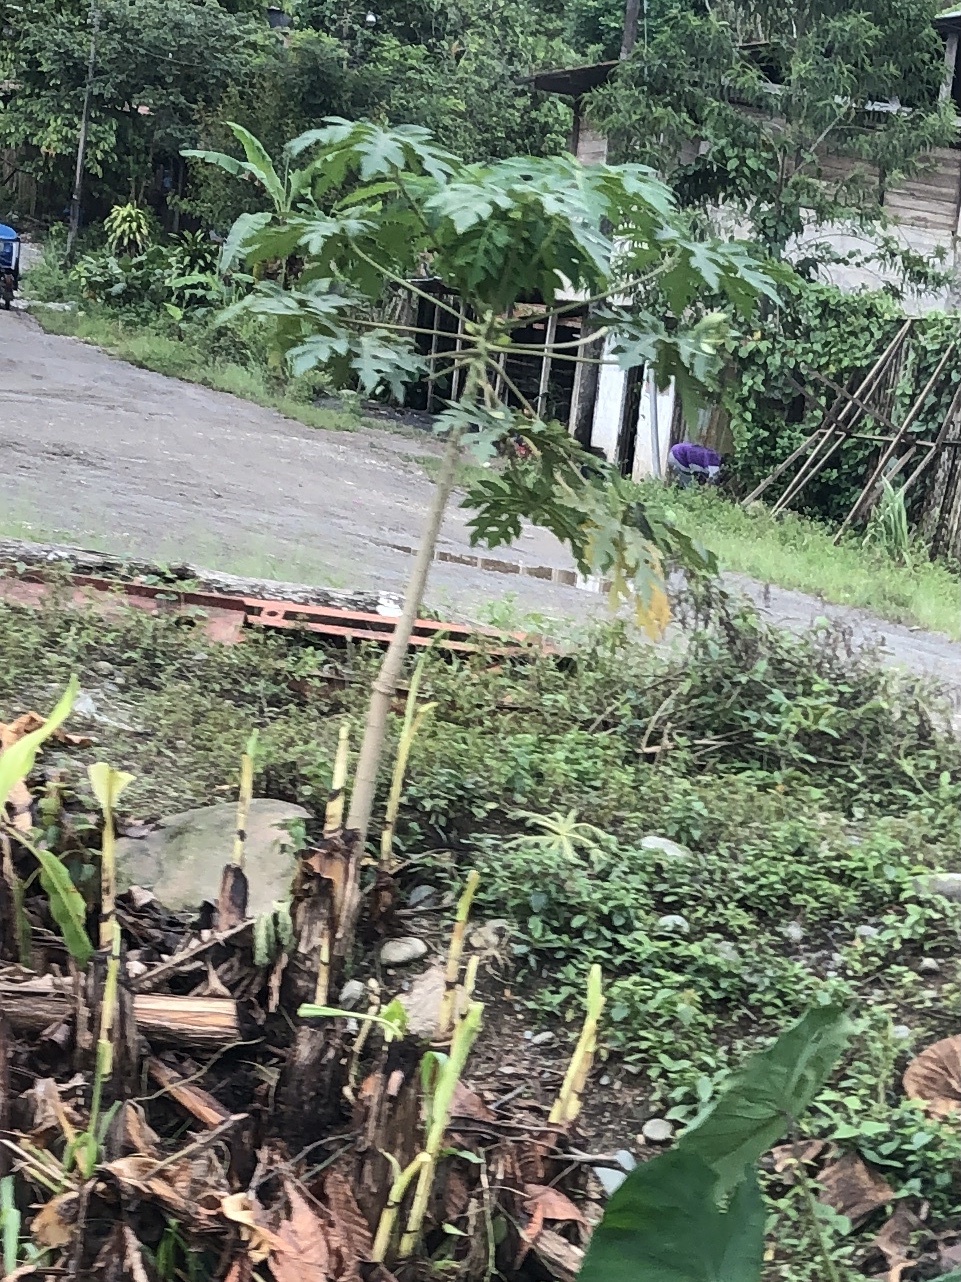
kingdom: Plantae
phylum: Tracheophyta
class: Magnoliopsida
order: Brassicales
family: Caricaceae
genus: Carica
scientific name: Carica papaya
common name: Papaya
